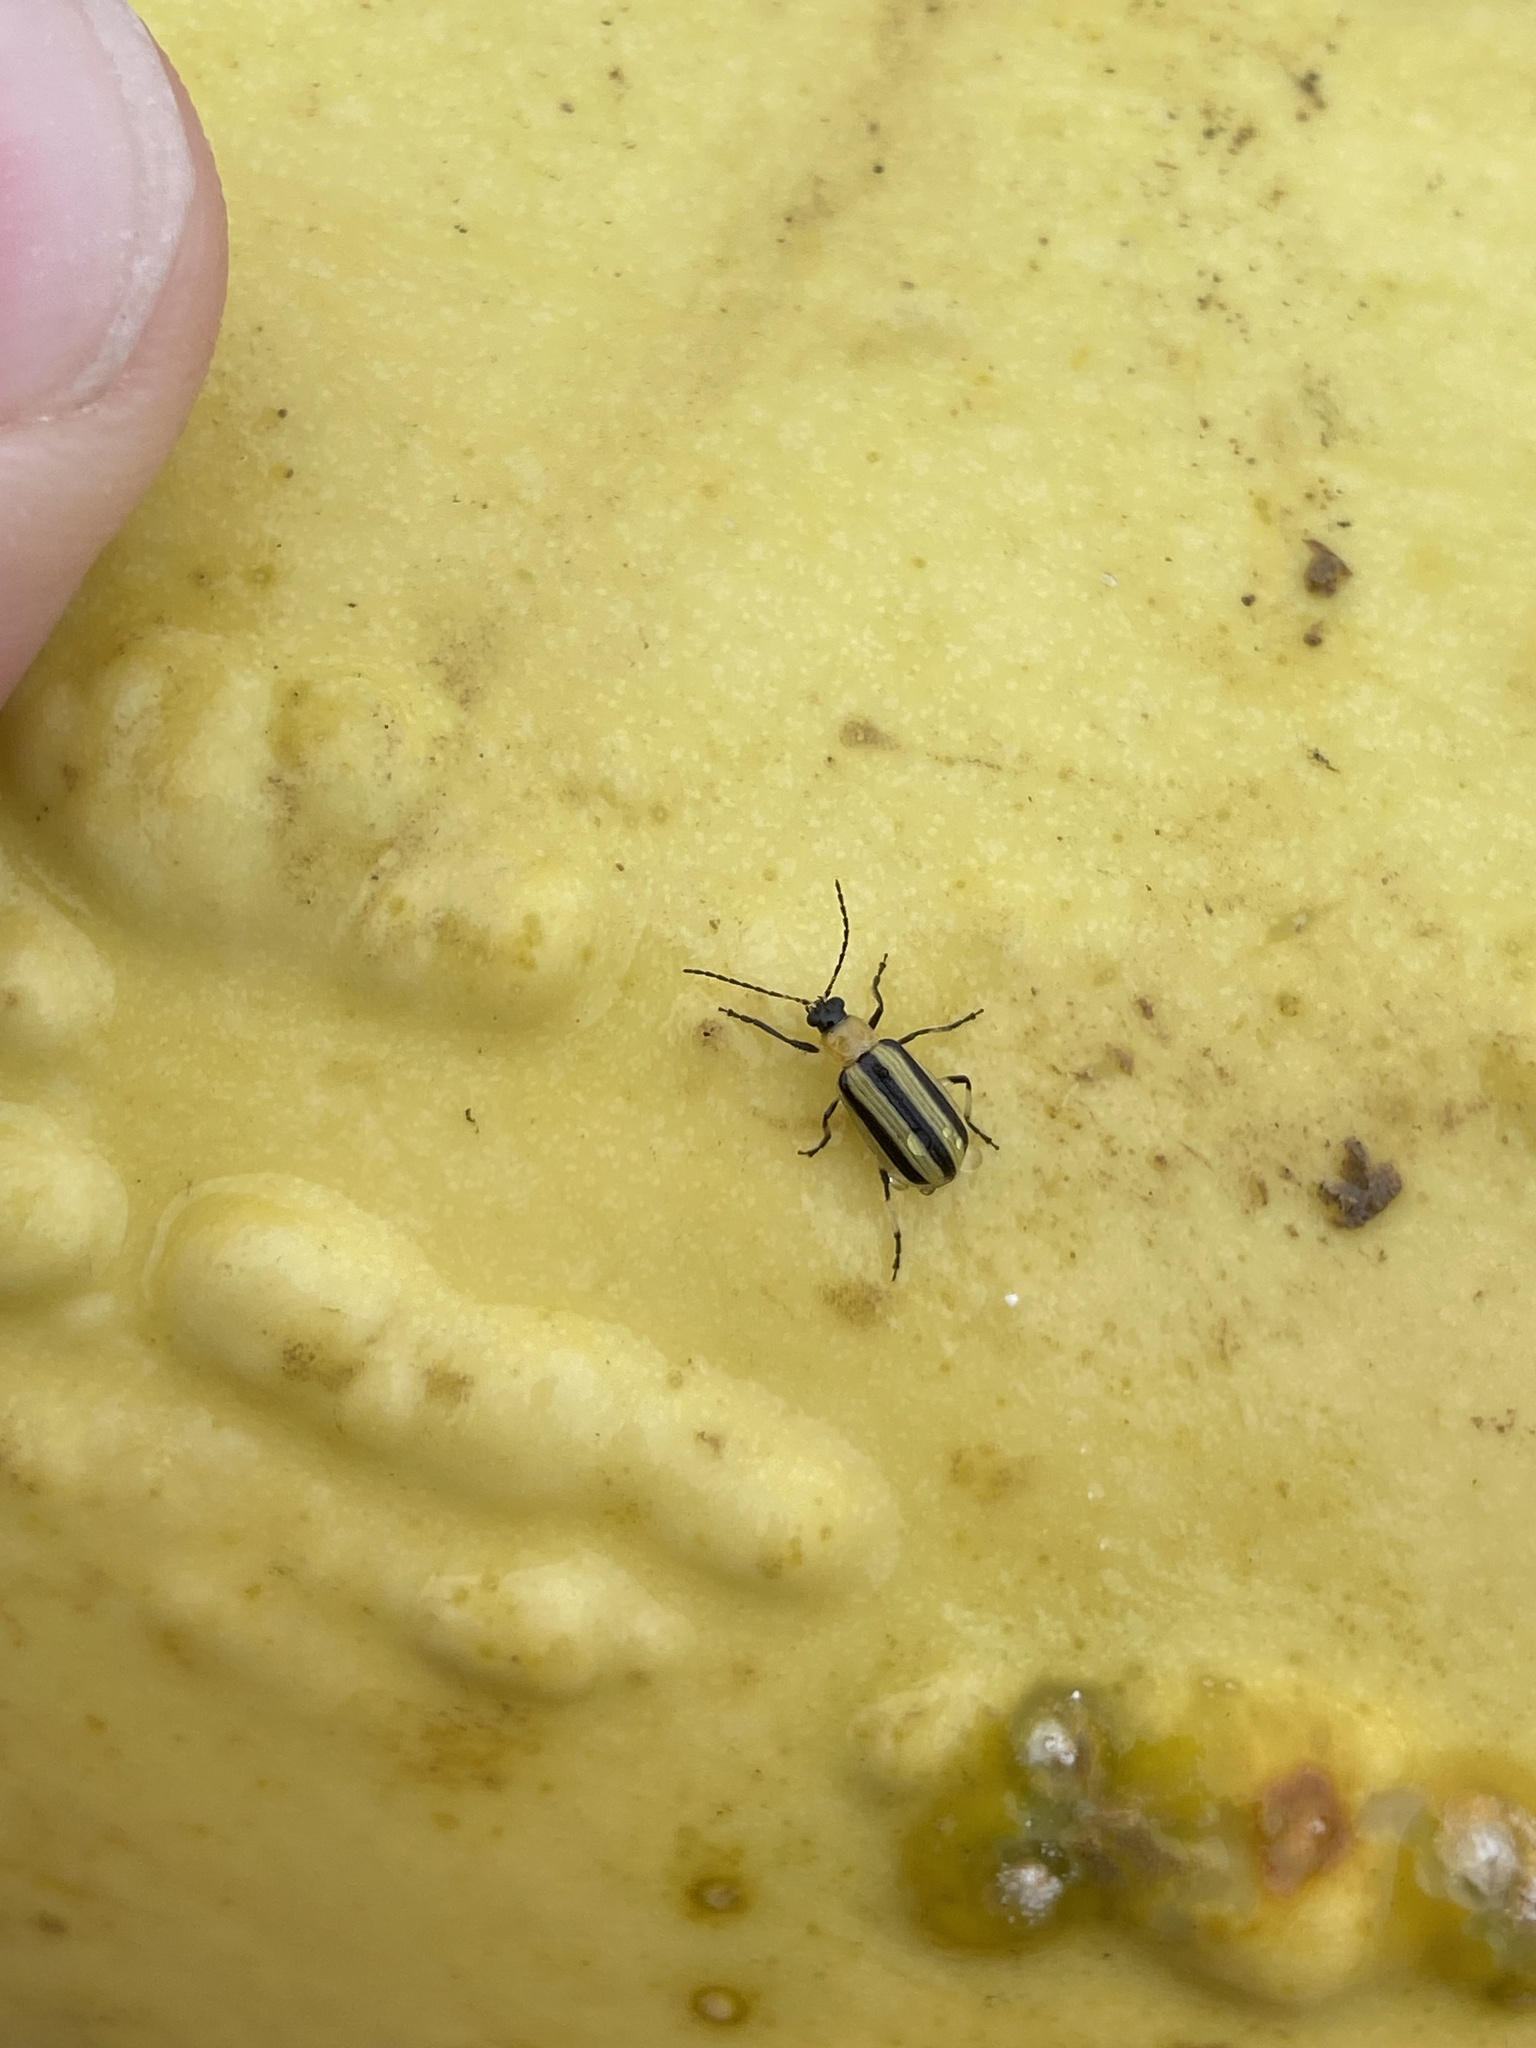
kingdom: Animalia
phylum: Arthropoda
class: Insecta
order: Coleoptera
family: Chrysomelidae
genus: Acalymma
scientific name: Acalymma vittatum
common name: Striped cucumber beetle
